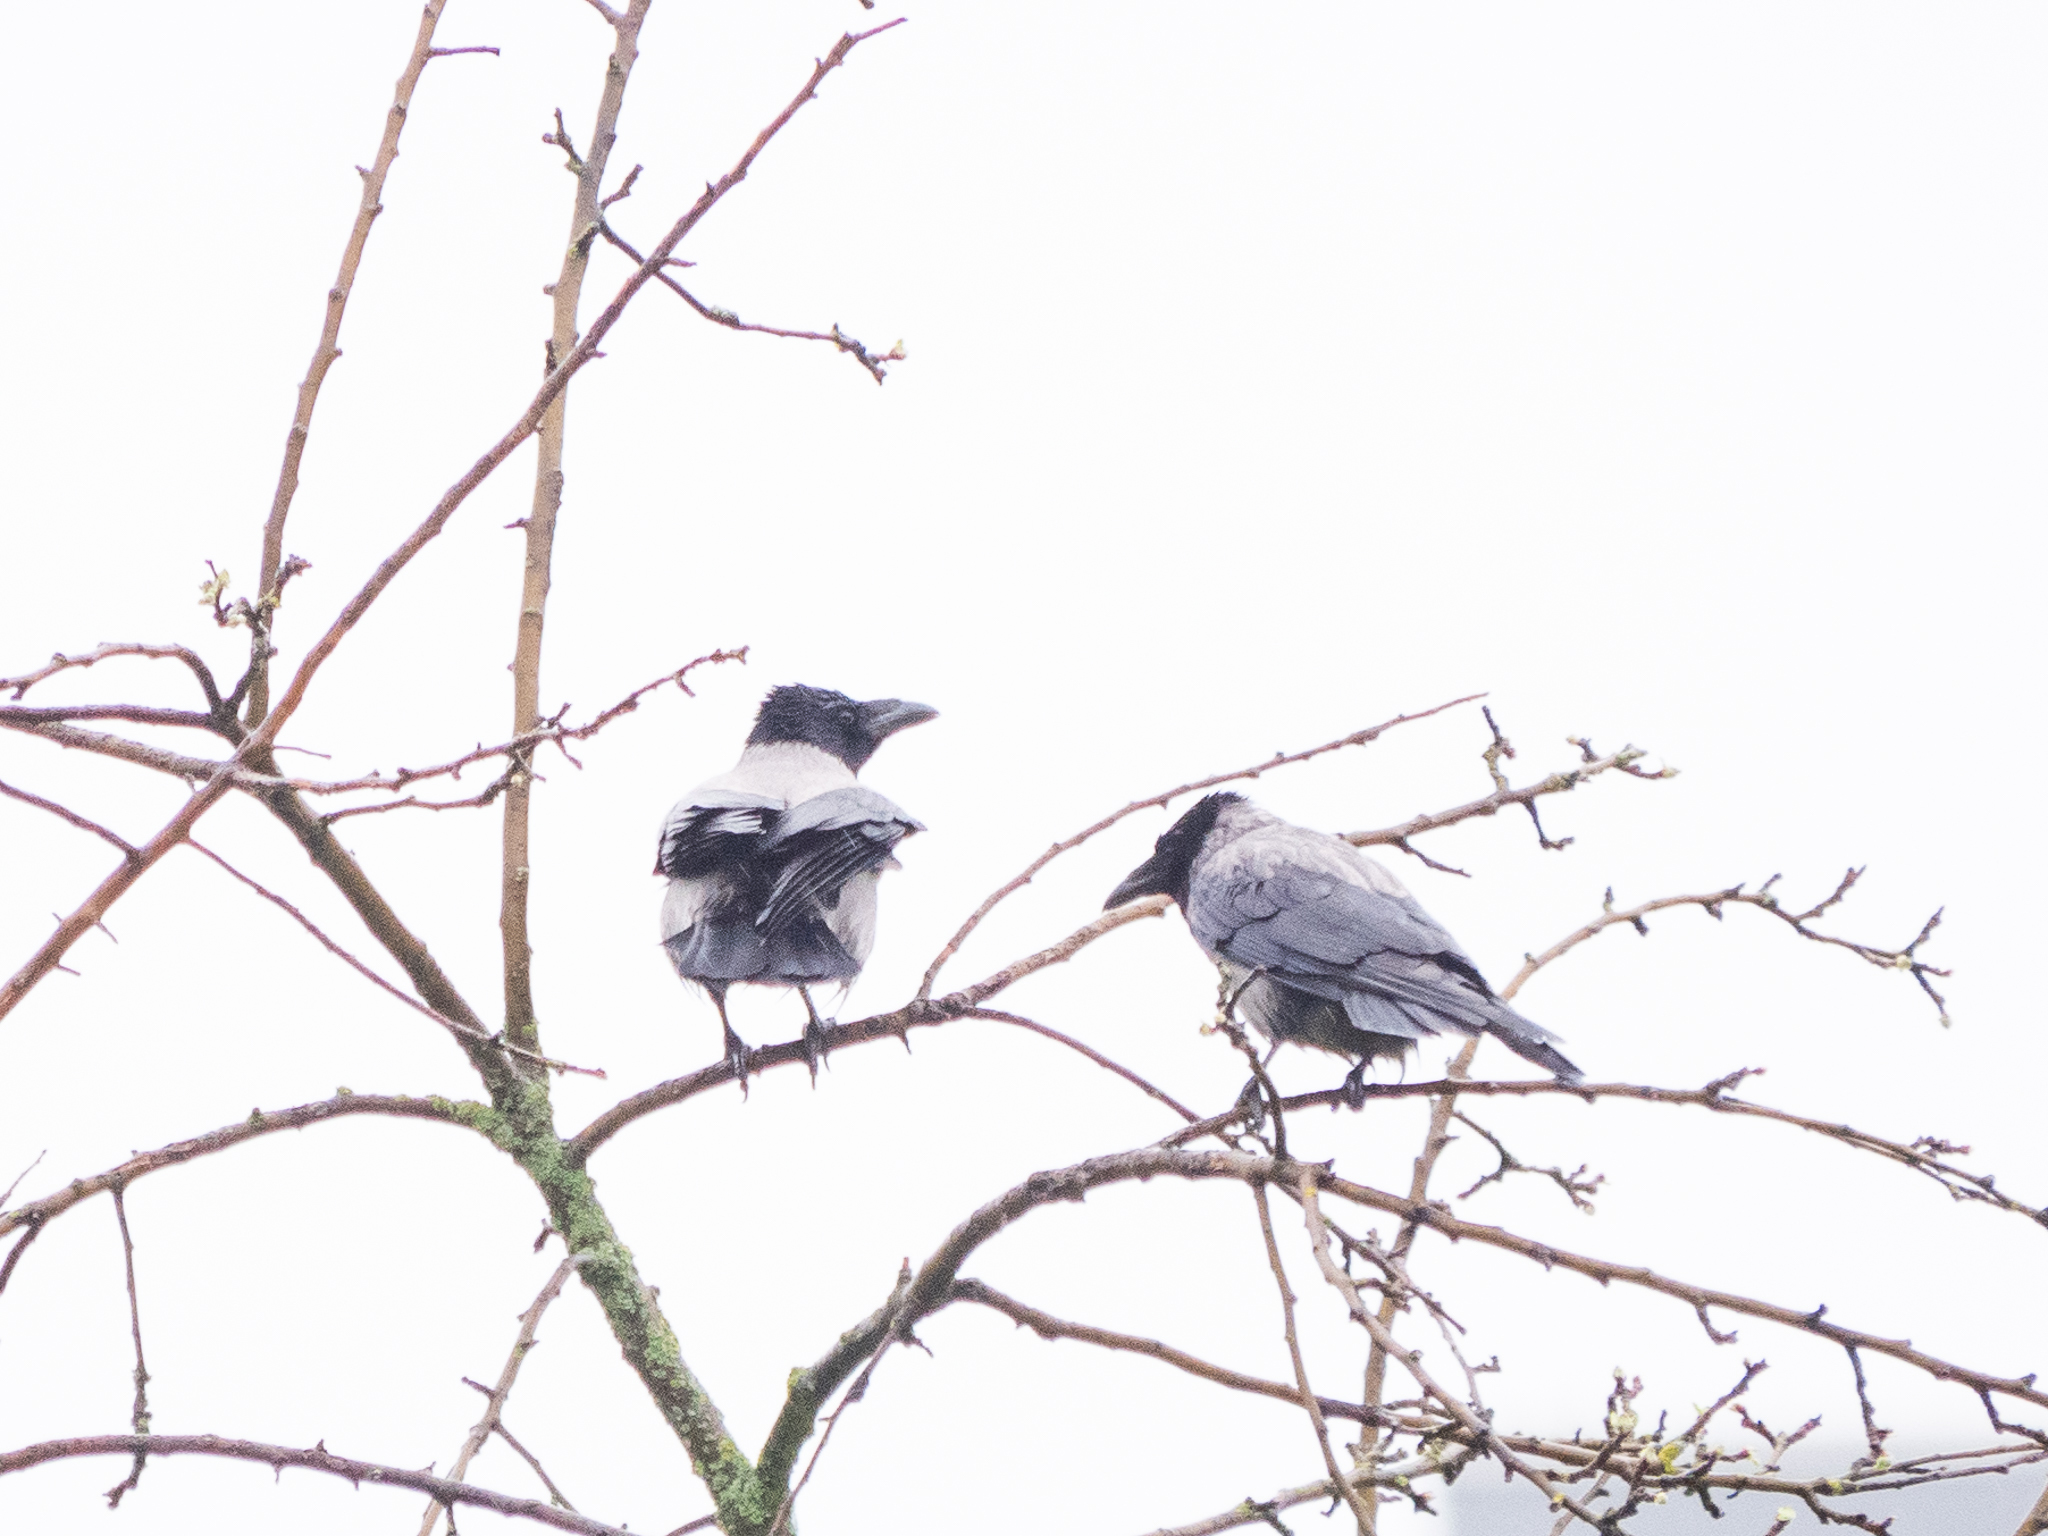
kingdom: Animalia
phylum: Chordata
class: Aves
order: Passeriformes
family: Corvidae
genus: Corvus
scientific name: Corvus cornix
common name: Hooded crow
